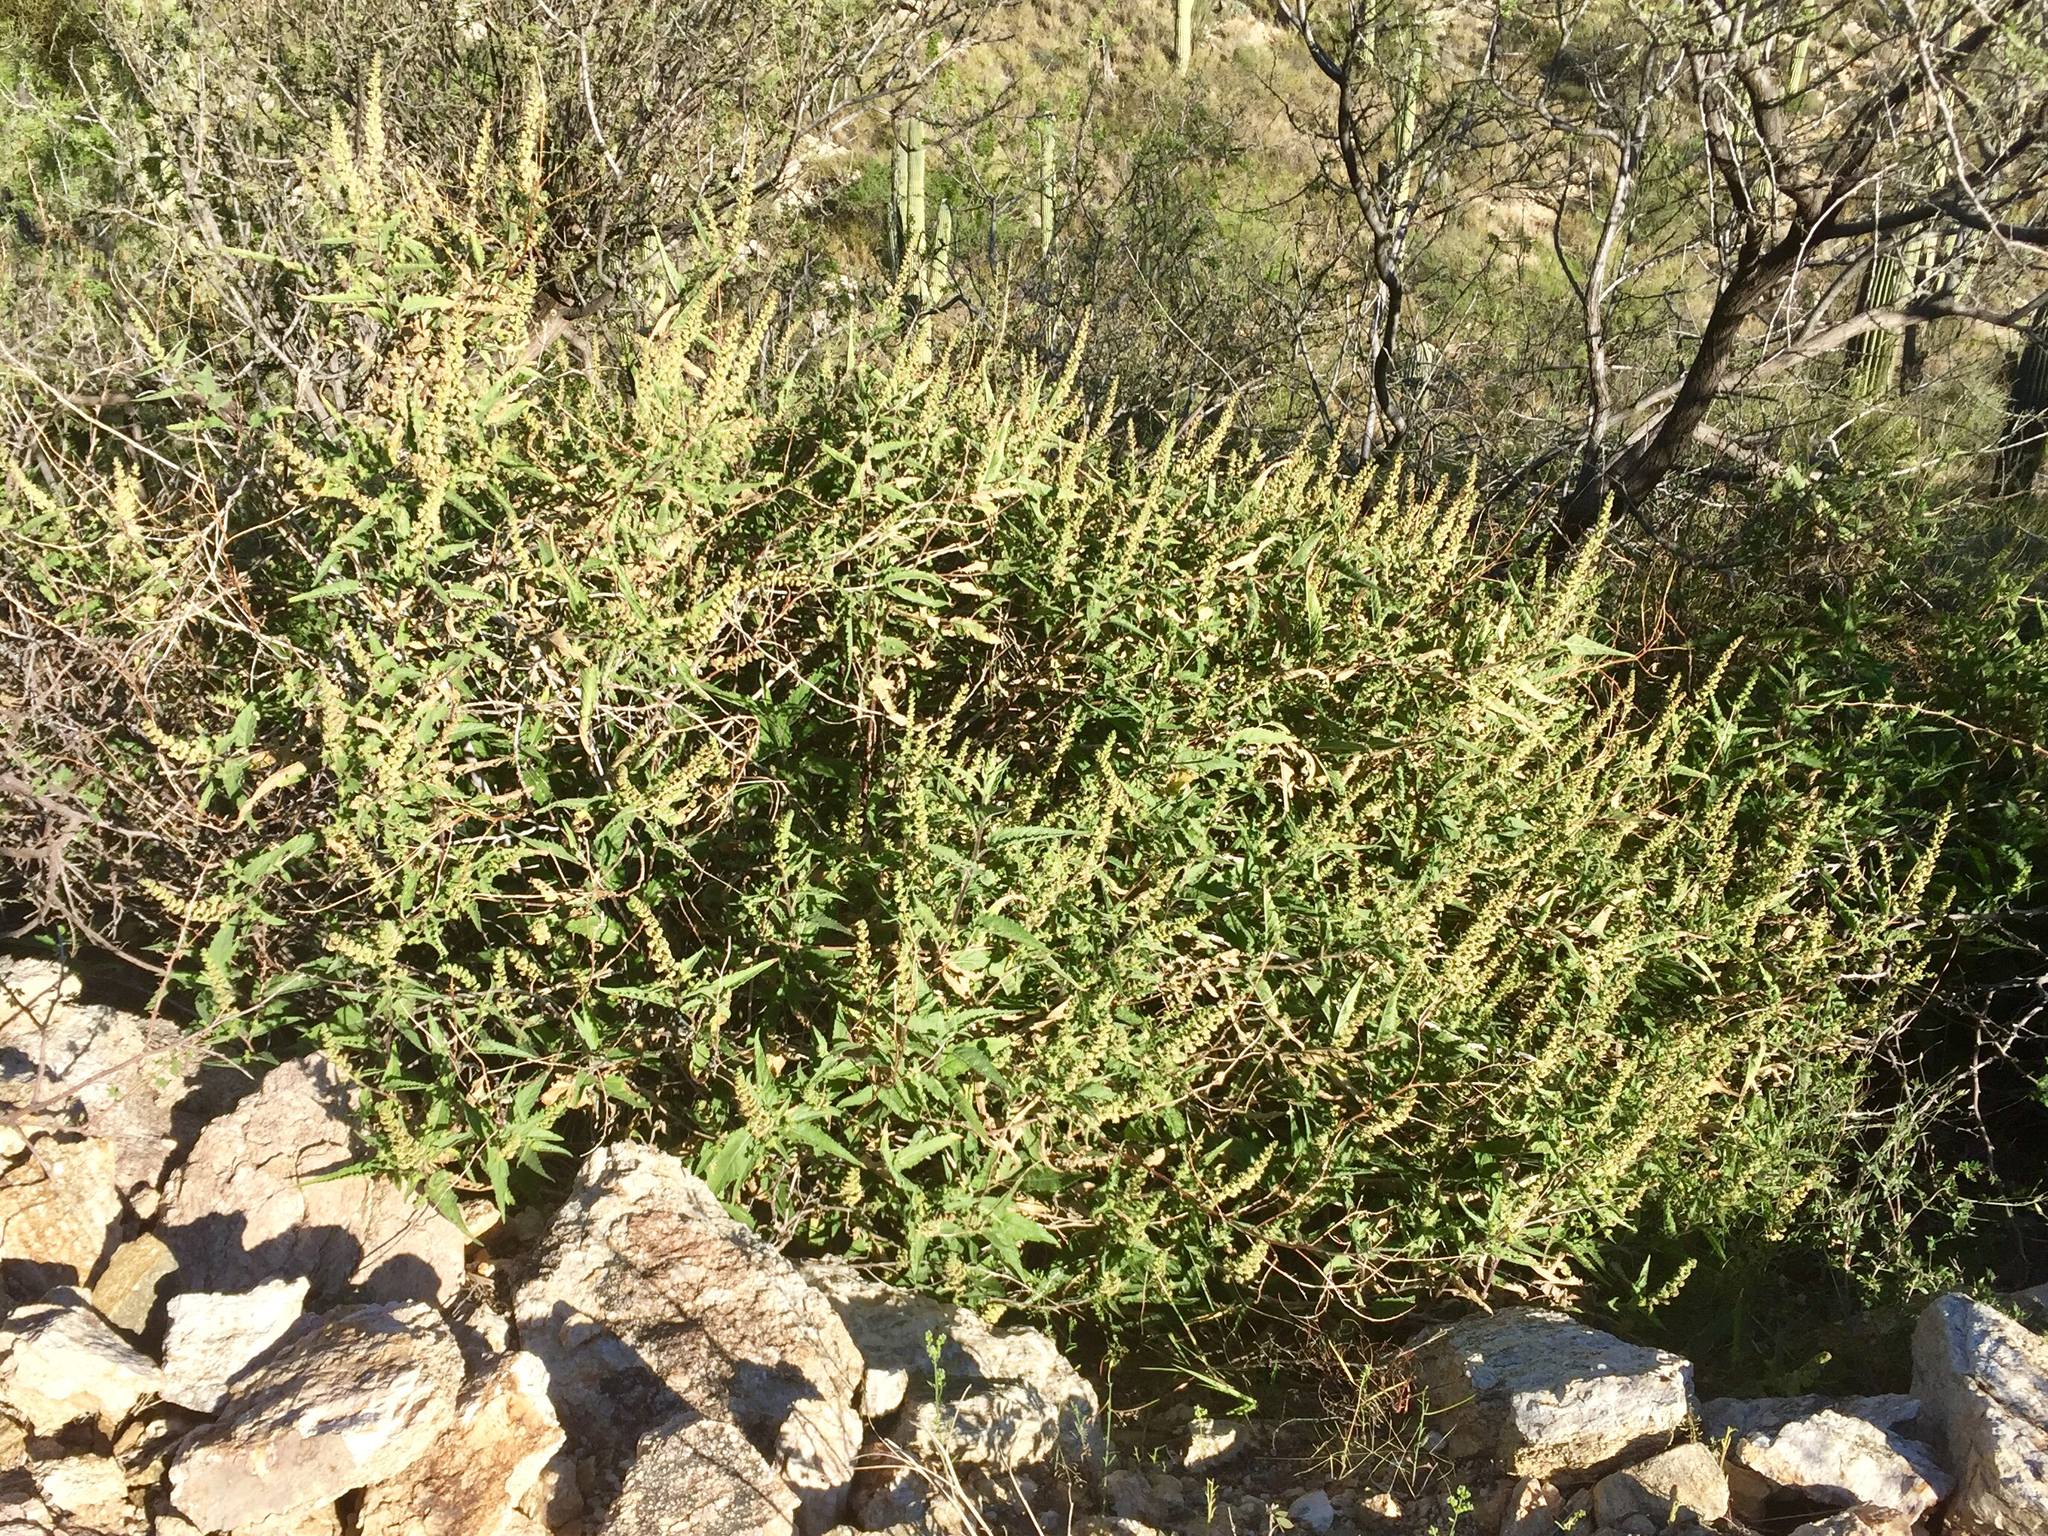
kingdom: Plantae
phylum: Tracheophyta
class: Magnoliopsida
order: Asterales
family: Asteraceae
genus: Ambrosia
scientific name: Ambrosia ambrosioides
